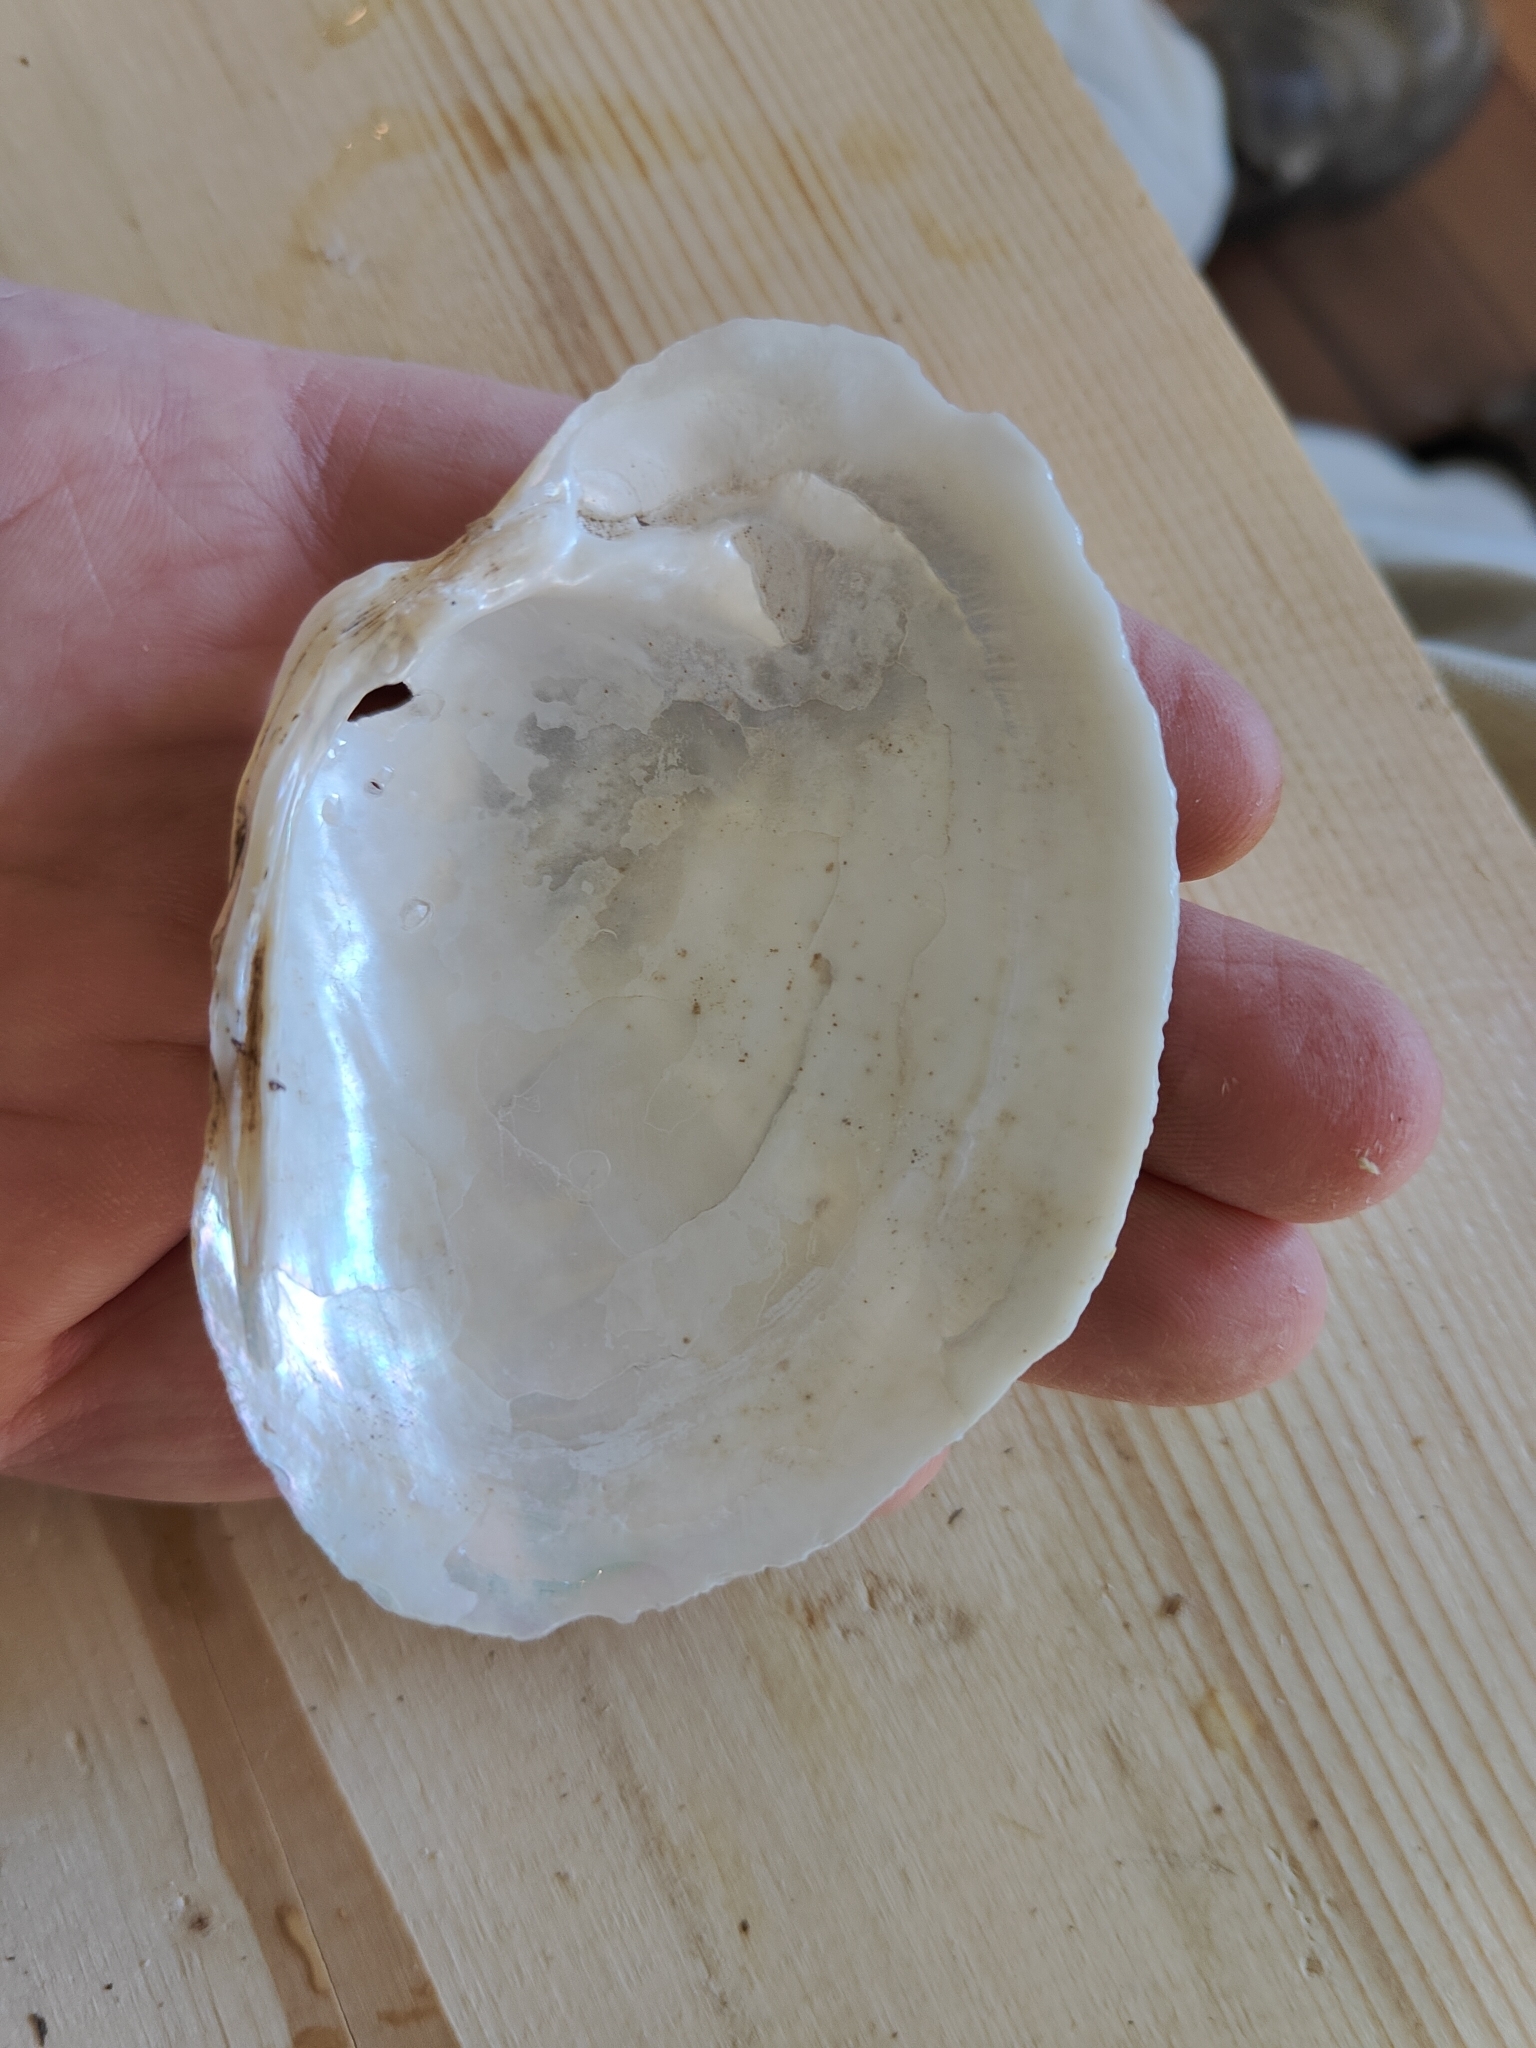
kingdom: Animalia
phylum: Mollusca
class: Bivalvia
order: Unionida
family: Unionidae
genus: Lampsilis
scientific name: Lampsilis cardium
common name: Plain pocketbook
